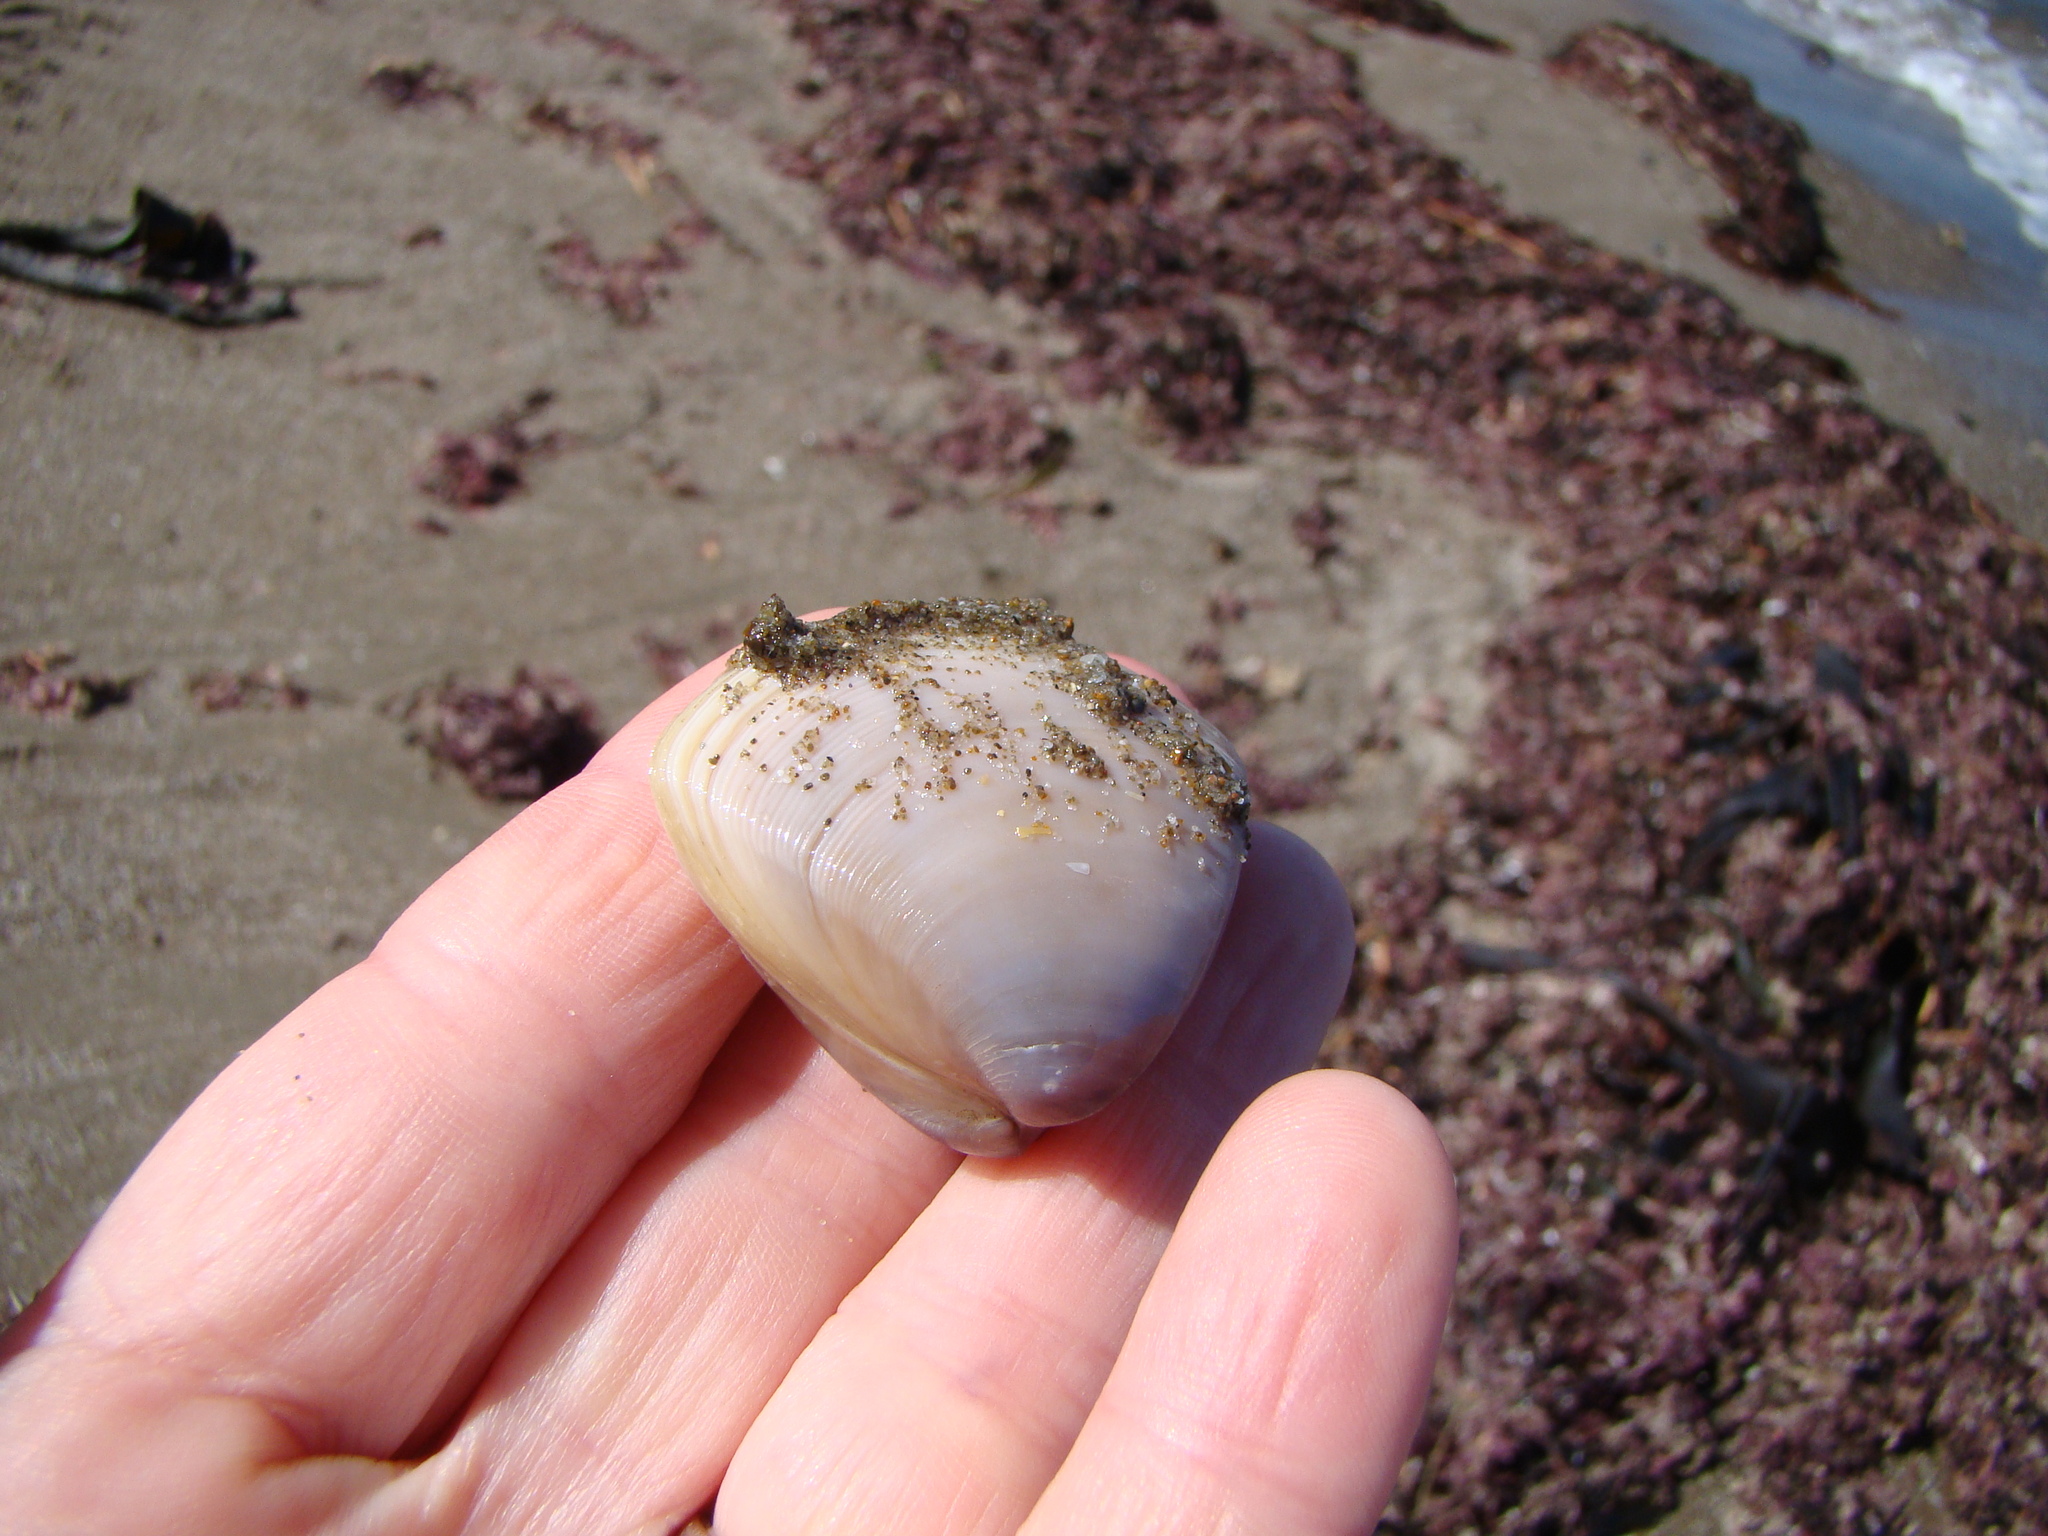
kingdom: Animalia
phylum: Mollusca
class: Bivalvia
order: Venerida
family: Mactridae
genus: Crassula
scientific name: Crassula aequilatera
